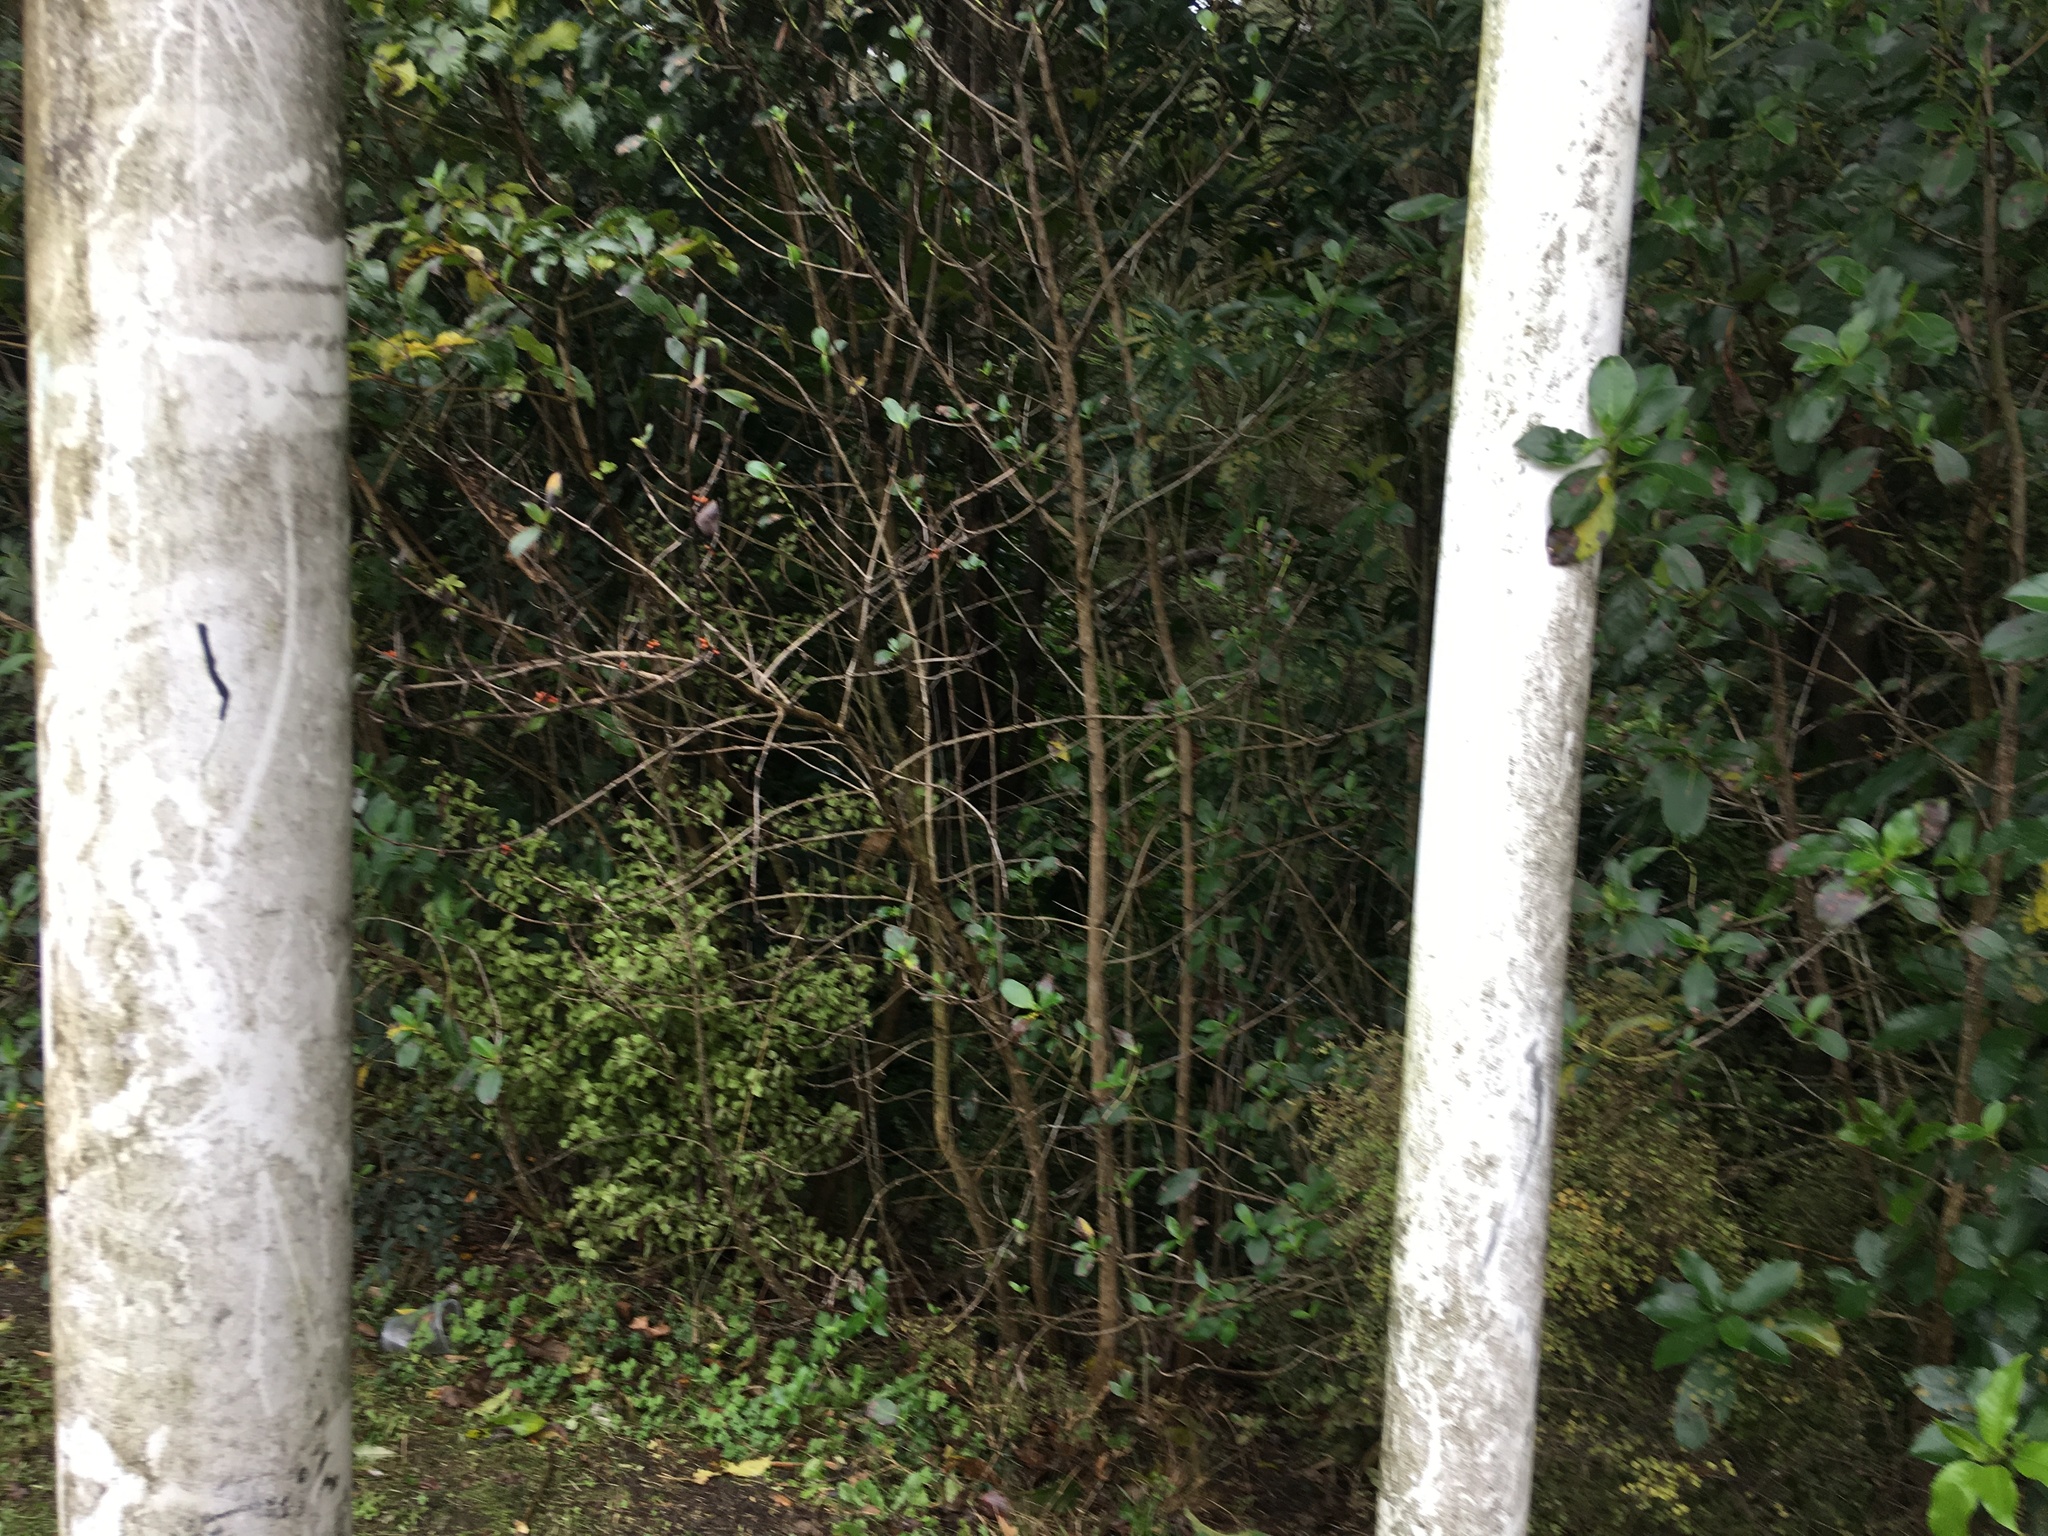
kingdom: Plantae
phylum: Tracheophyta
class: Magnoliopsida
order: Gentianales
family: Rubiaceae
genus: Coprosma
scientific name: Coprosma robusta
